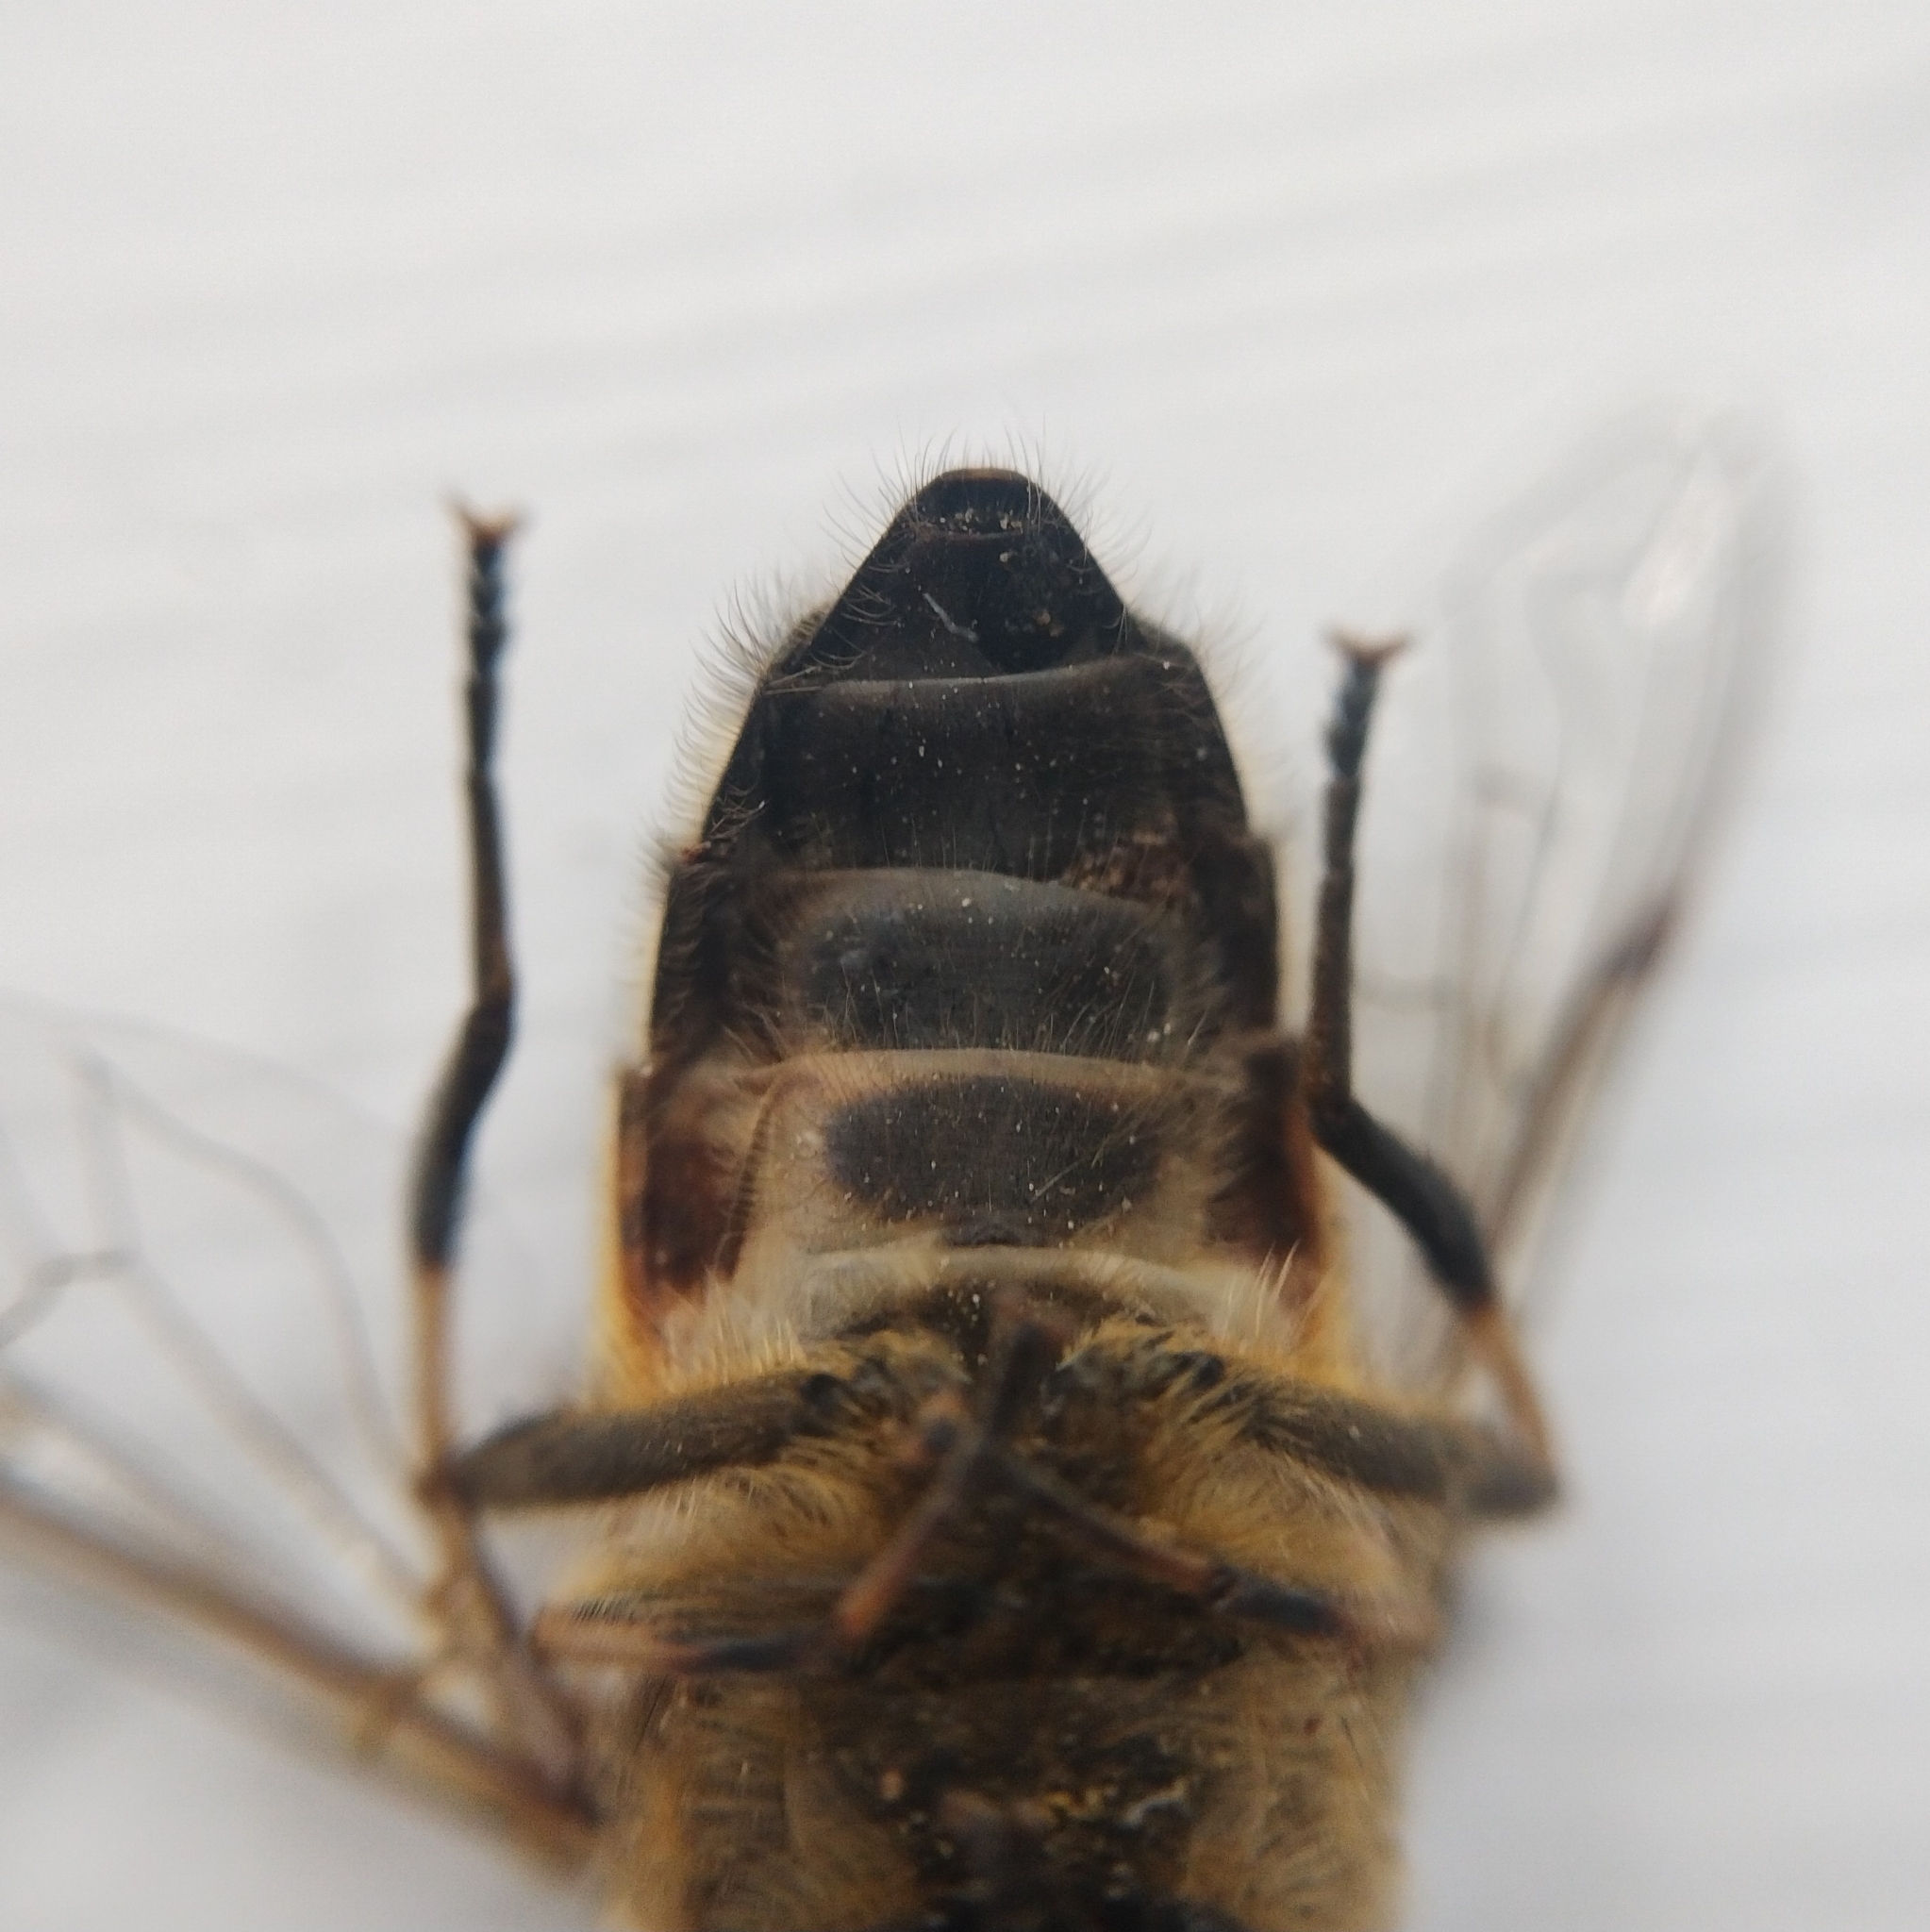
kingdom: Animalia
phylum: Arthropoda
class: Insecta
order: Diptera
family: Syrphidae
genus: Eristalis
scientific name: Eristalis pertinax
